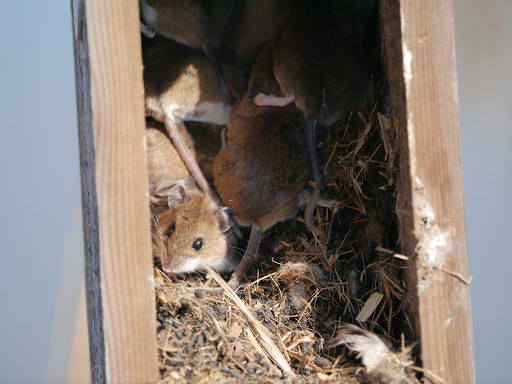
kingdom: Animalia
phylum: Chordata
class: Mammalia
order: Rodentia
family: Cricetidae
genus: Peromyscus
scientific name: Peromyscus
